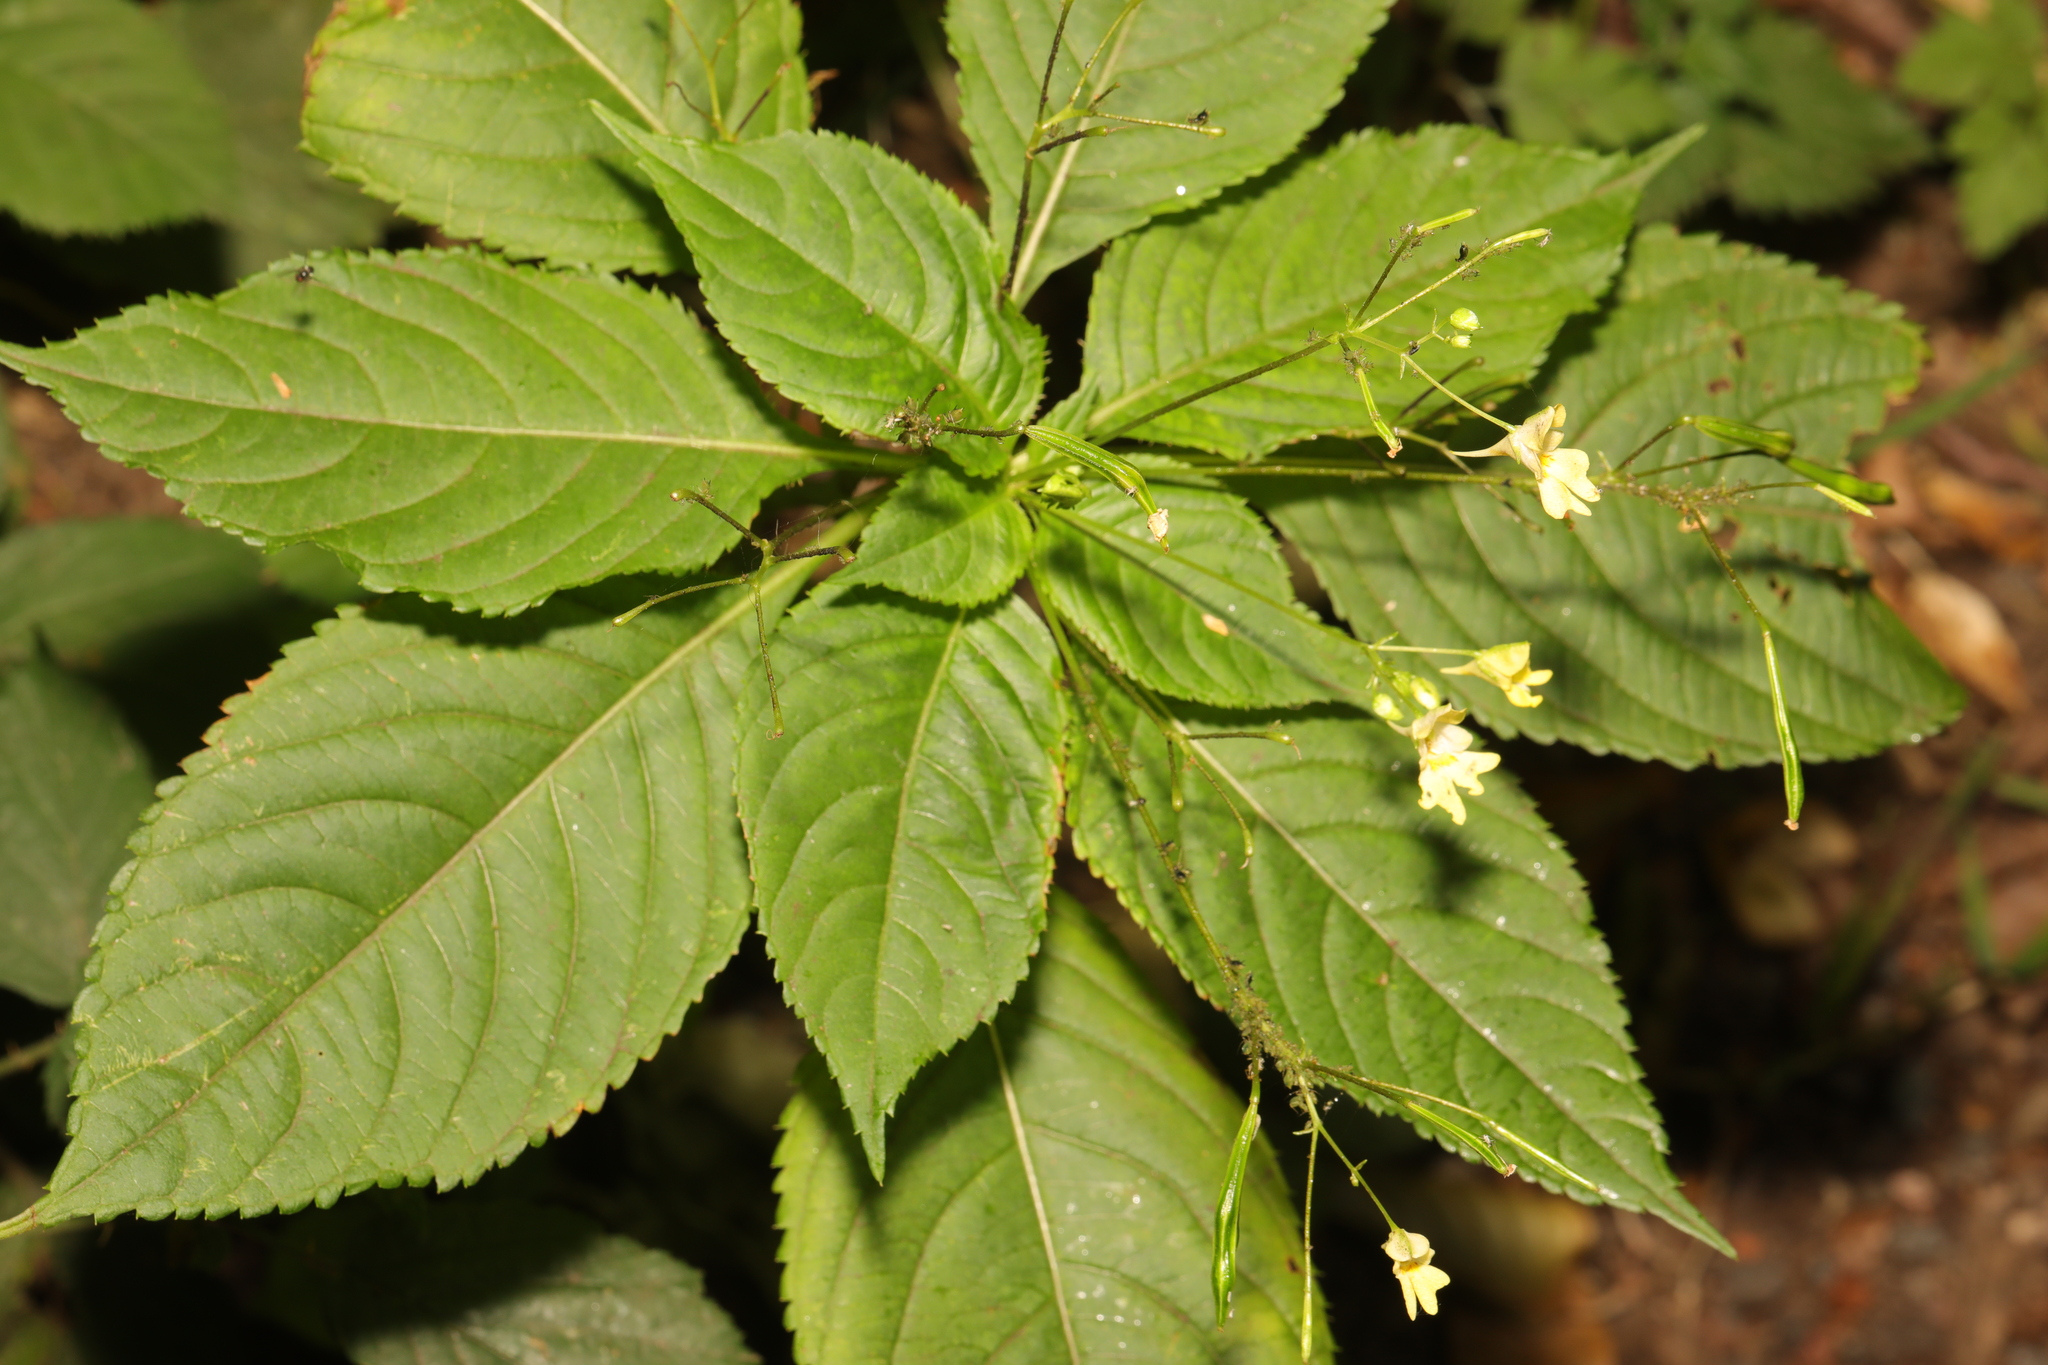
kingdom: Plantae
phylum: Tracheophyta
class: Magnoliopsida
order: Ericales
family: Balsaminaceae
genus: Impatiens
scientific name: Impatiens parviflora
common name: Small balsam
